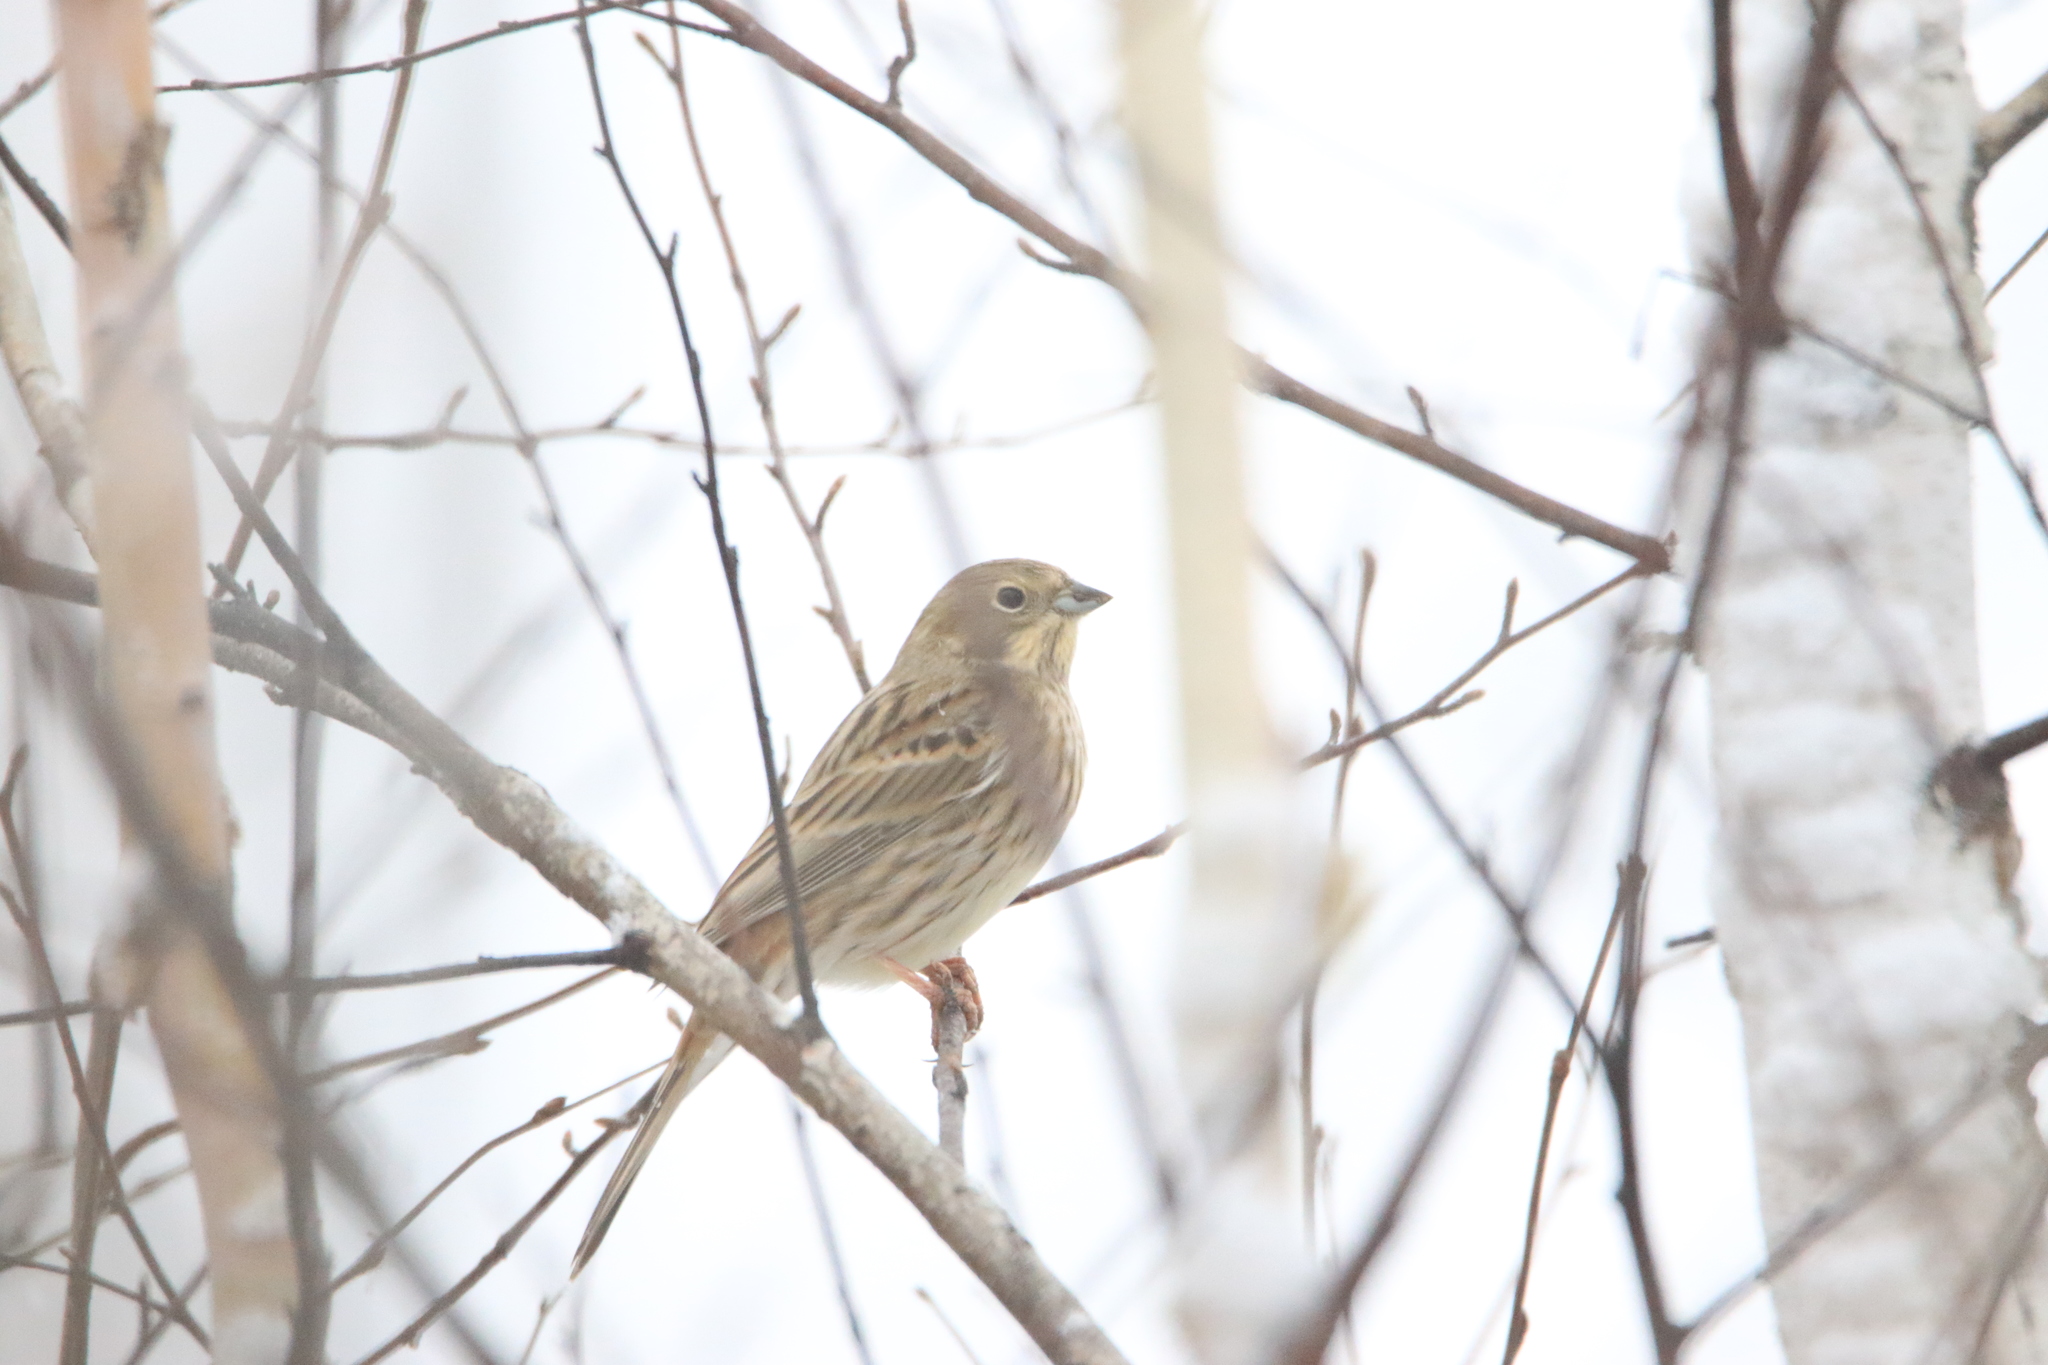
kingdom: Animalia
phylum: Chordata
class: Aves
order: Passeriformes
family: Emberizidae
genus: Emberiza
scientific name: Emberiza citrinella
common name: Yellowhammer
